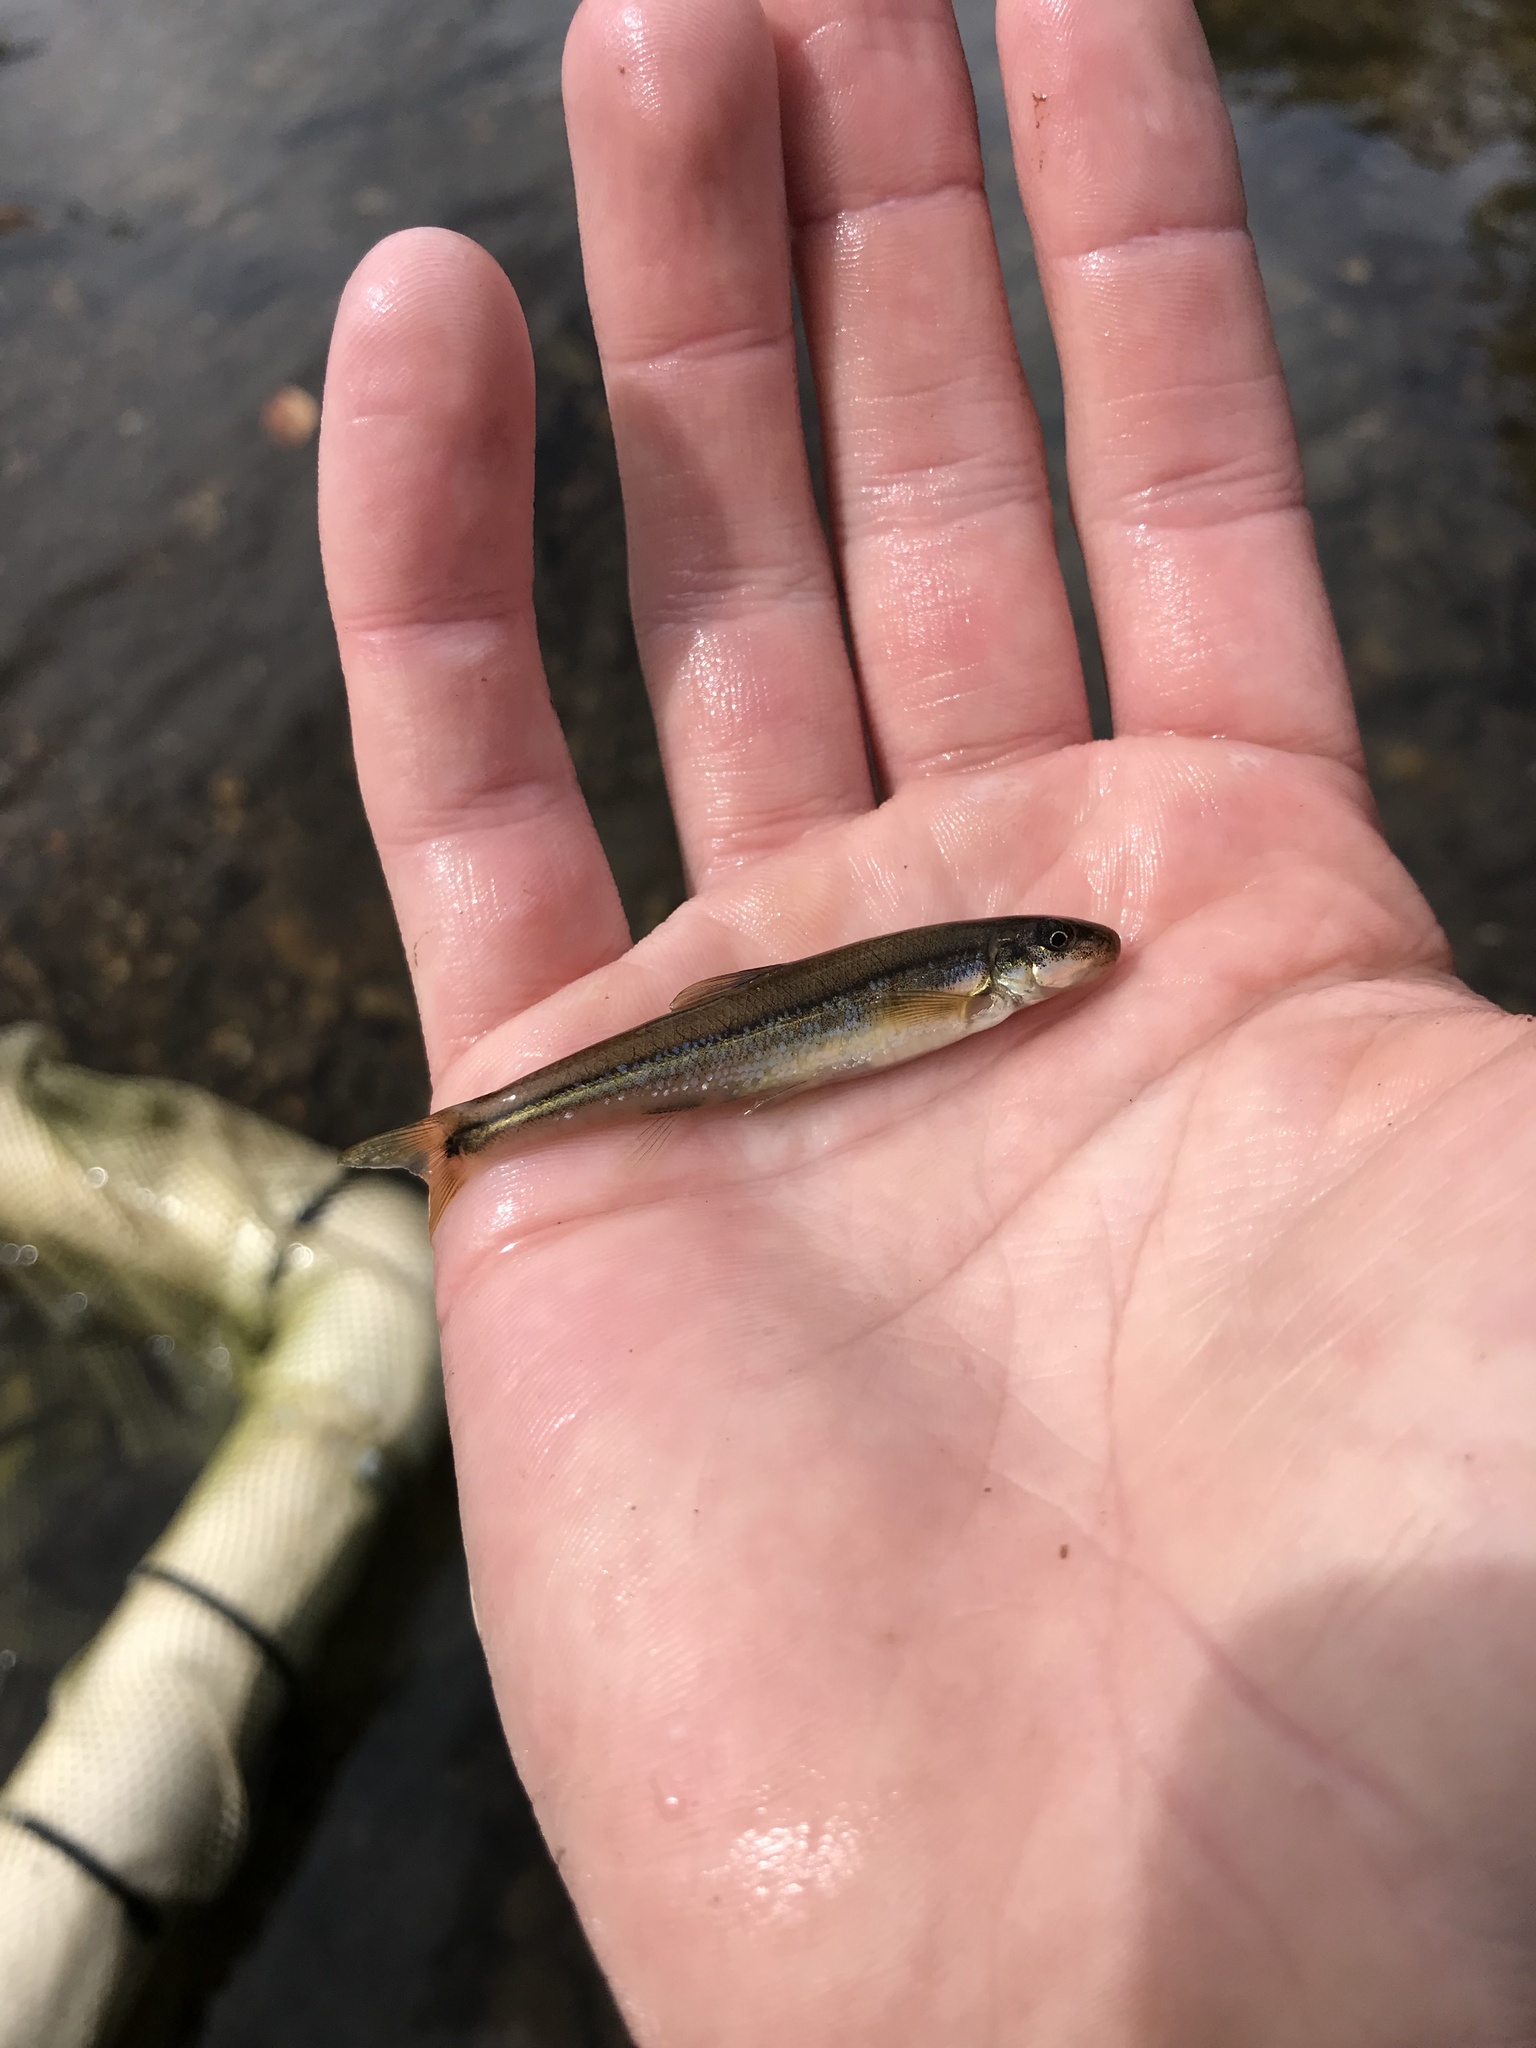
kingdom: Animalia
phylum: Chordata
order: Cypriniformes
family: Cyprinidae
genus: Phenacobius
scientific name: Phenacobius crassilabrum
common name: Fatlips minnow
